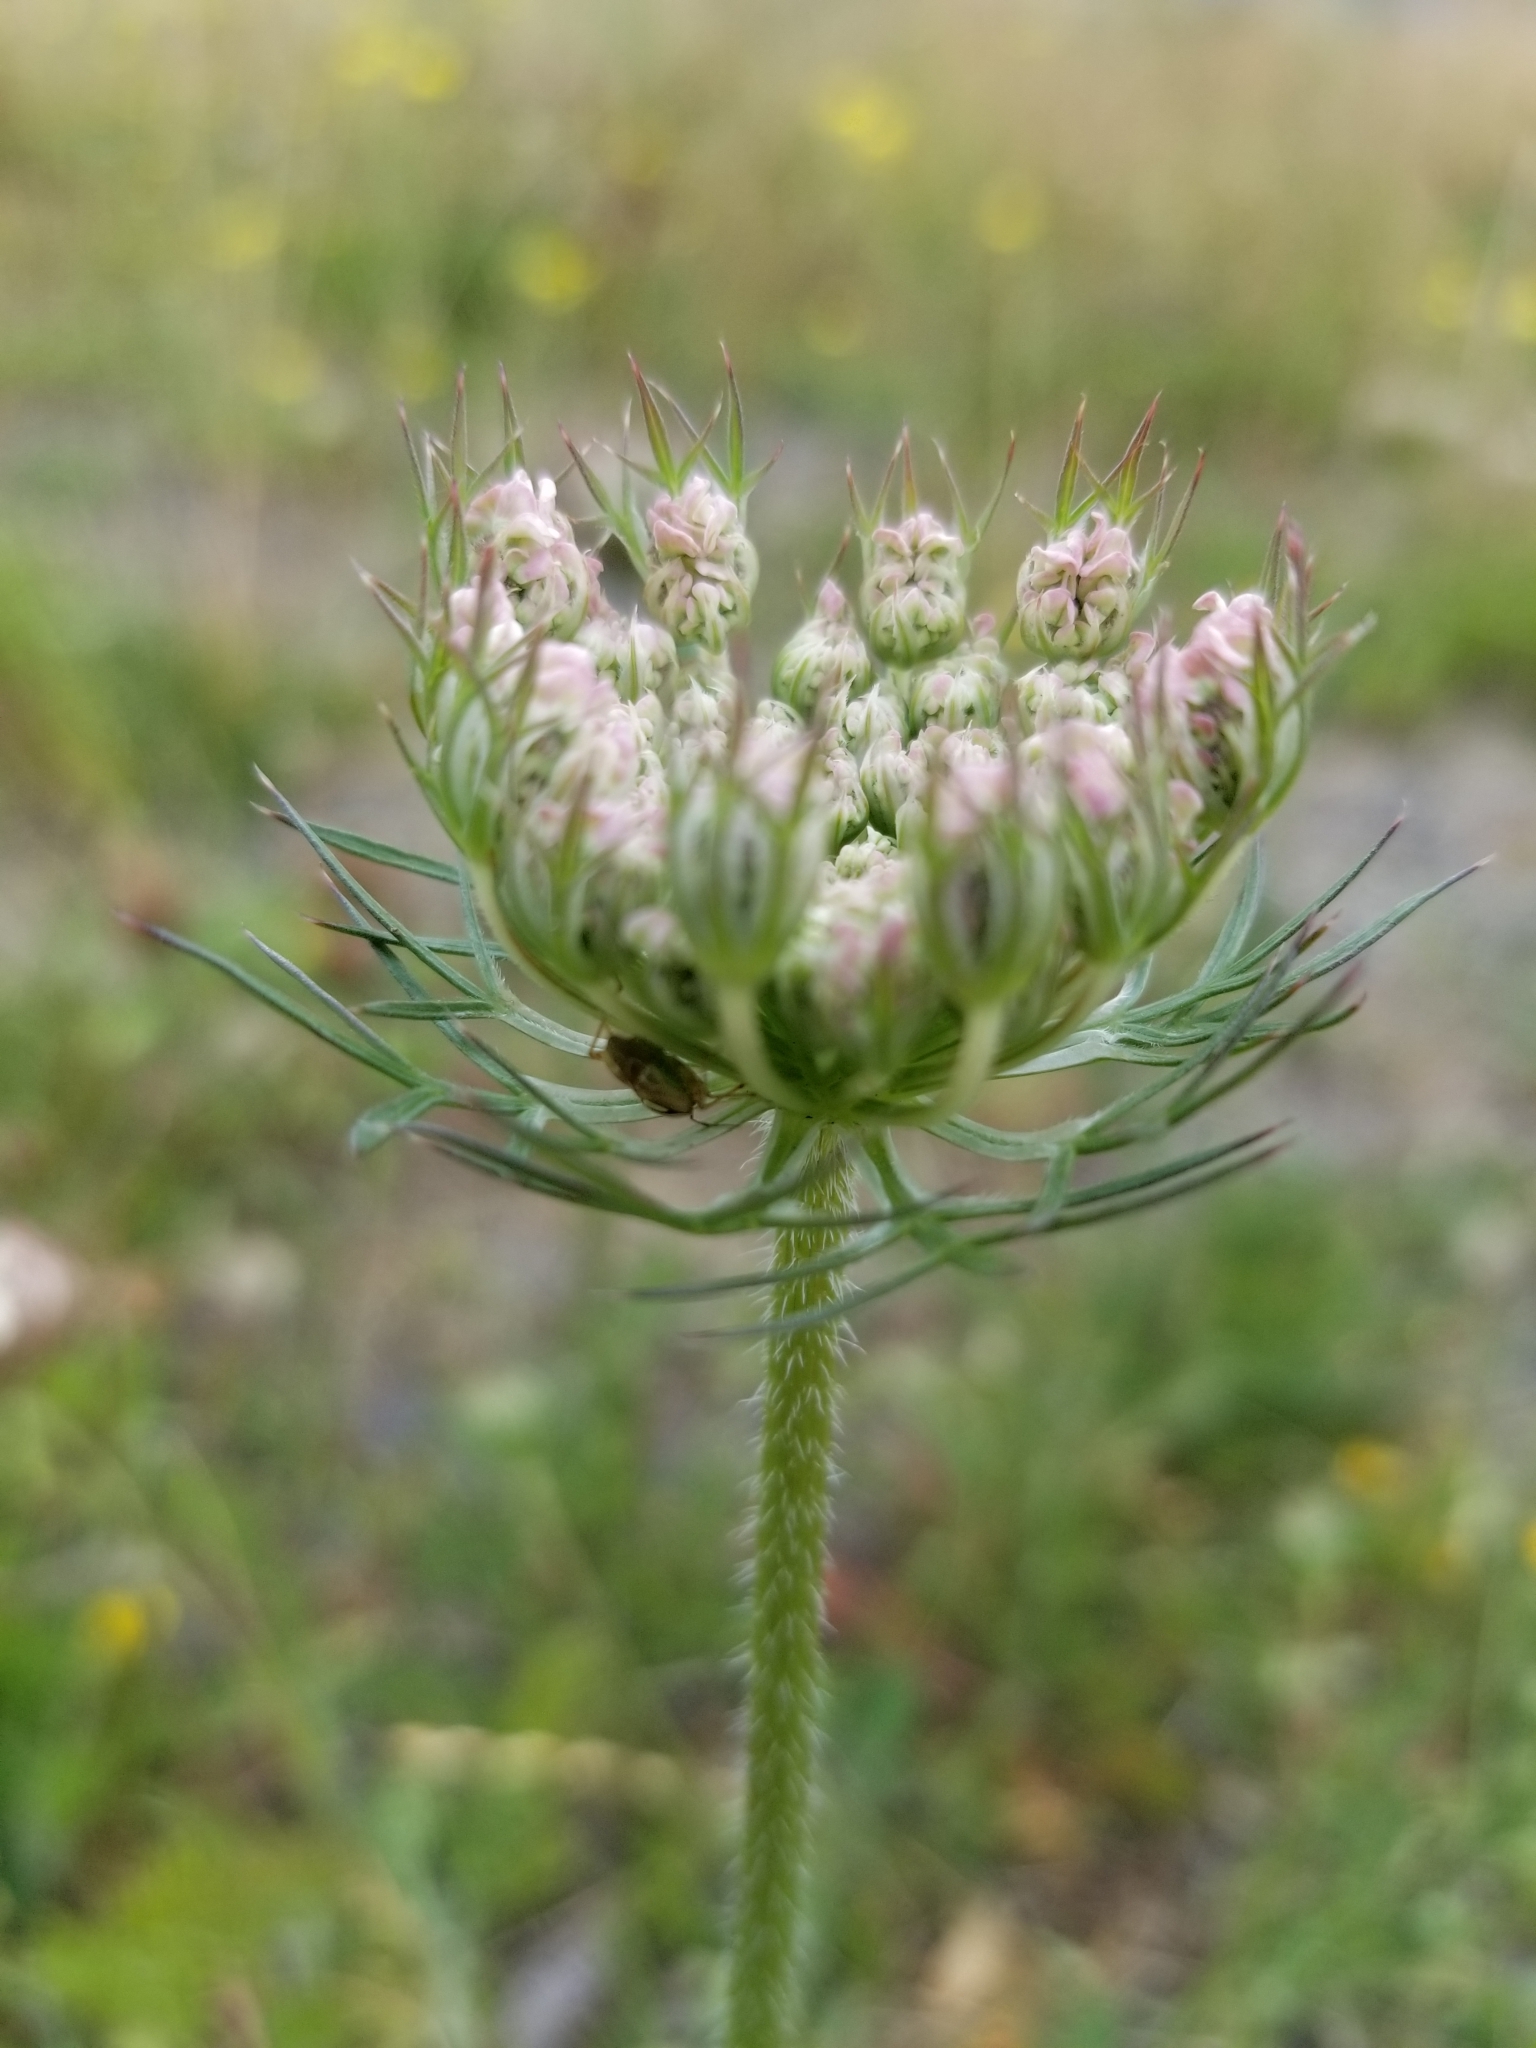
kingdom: Plantae
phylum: Tracheophyta
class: Magnoliopsida
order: Apiales
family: Apiaceae
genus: Daucus
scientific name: Daucus carota
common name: Wild carrot
